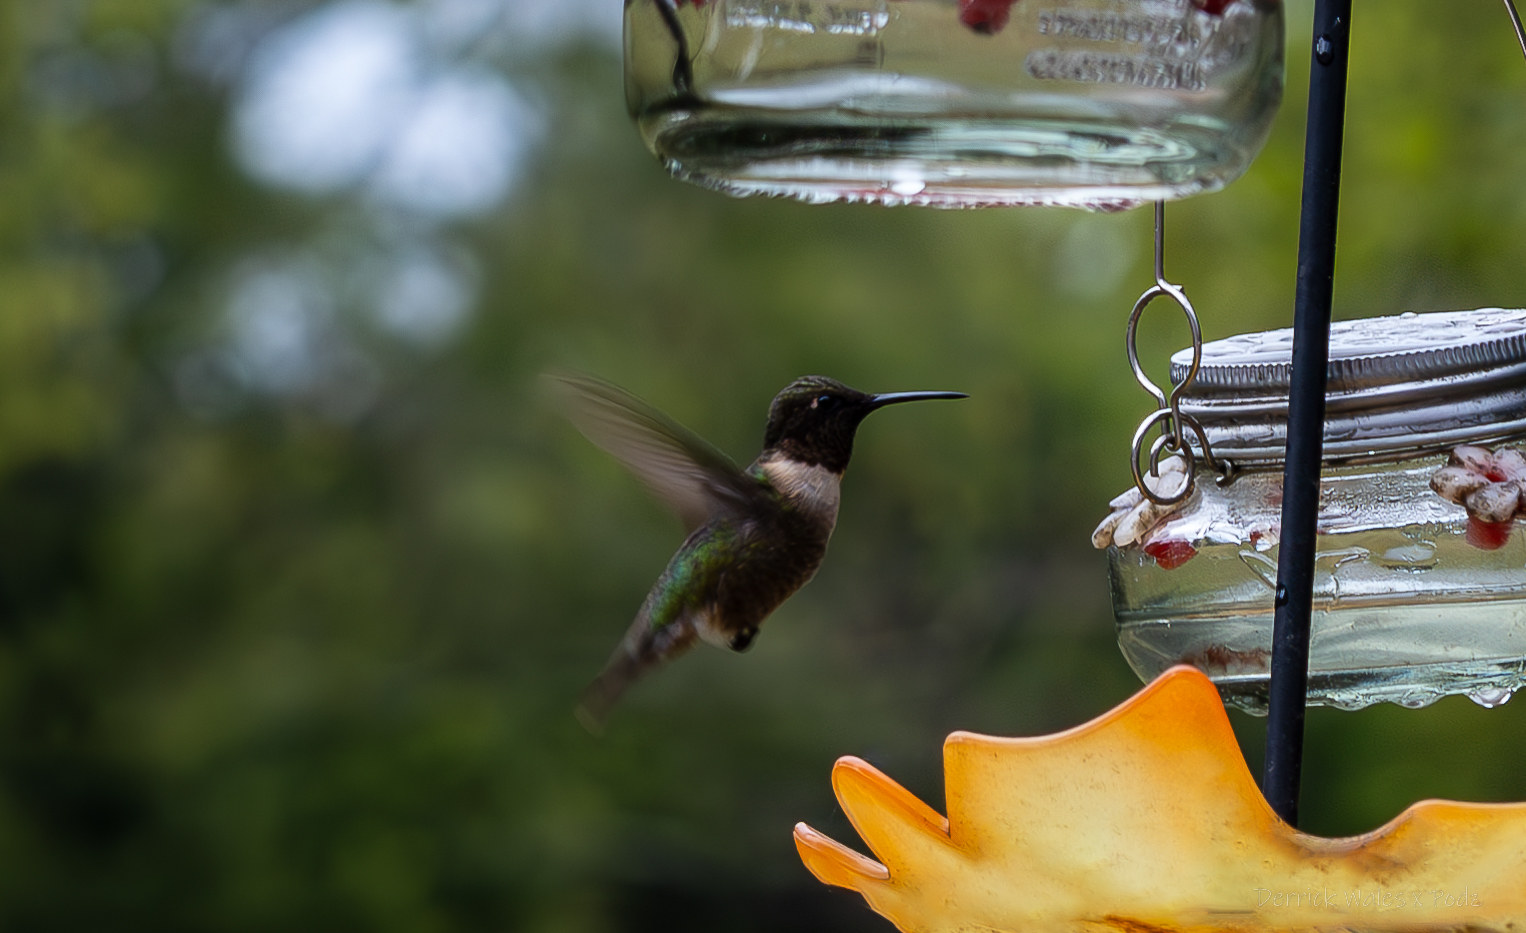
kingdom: Animalia
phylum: Chordata
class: Aves
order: Apodiformes
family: Trochilidae
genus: Archilochus
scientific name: Archilochus colubris
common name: Ruby-throated hummingbird
